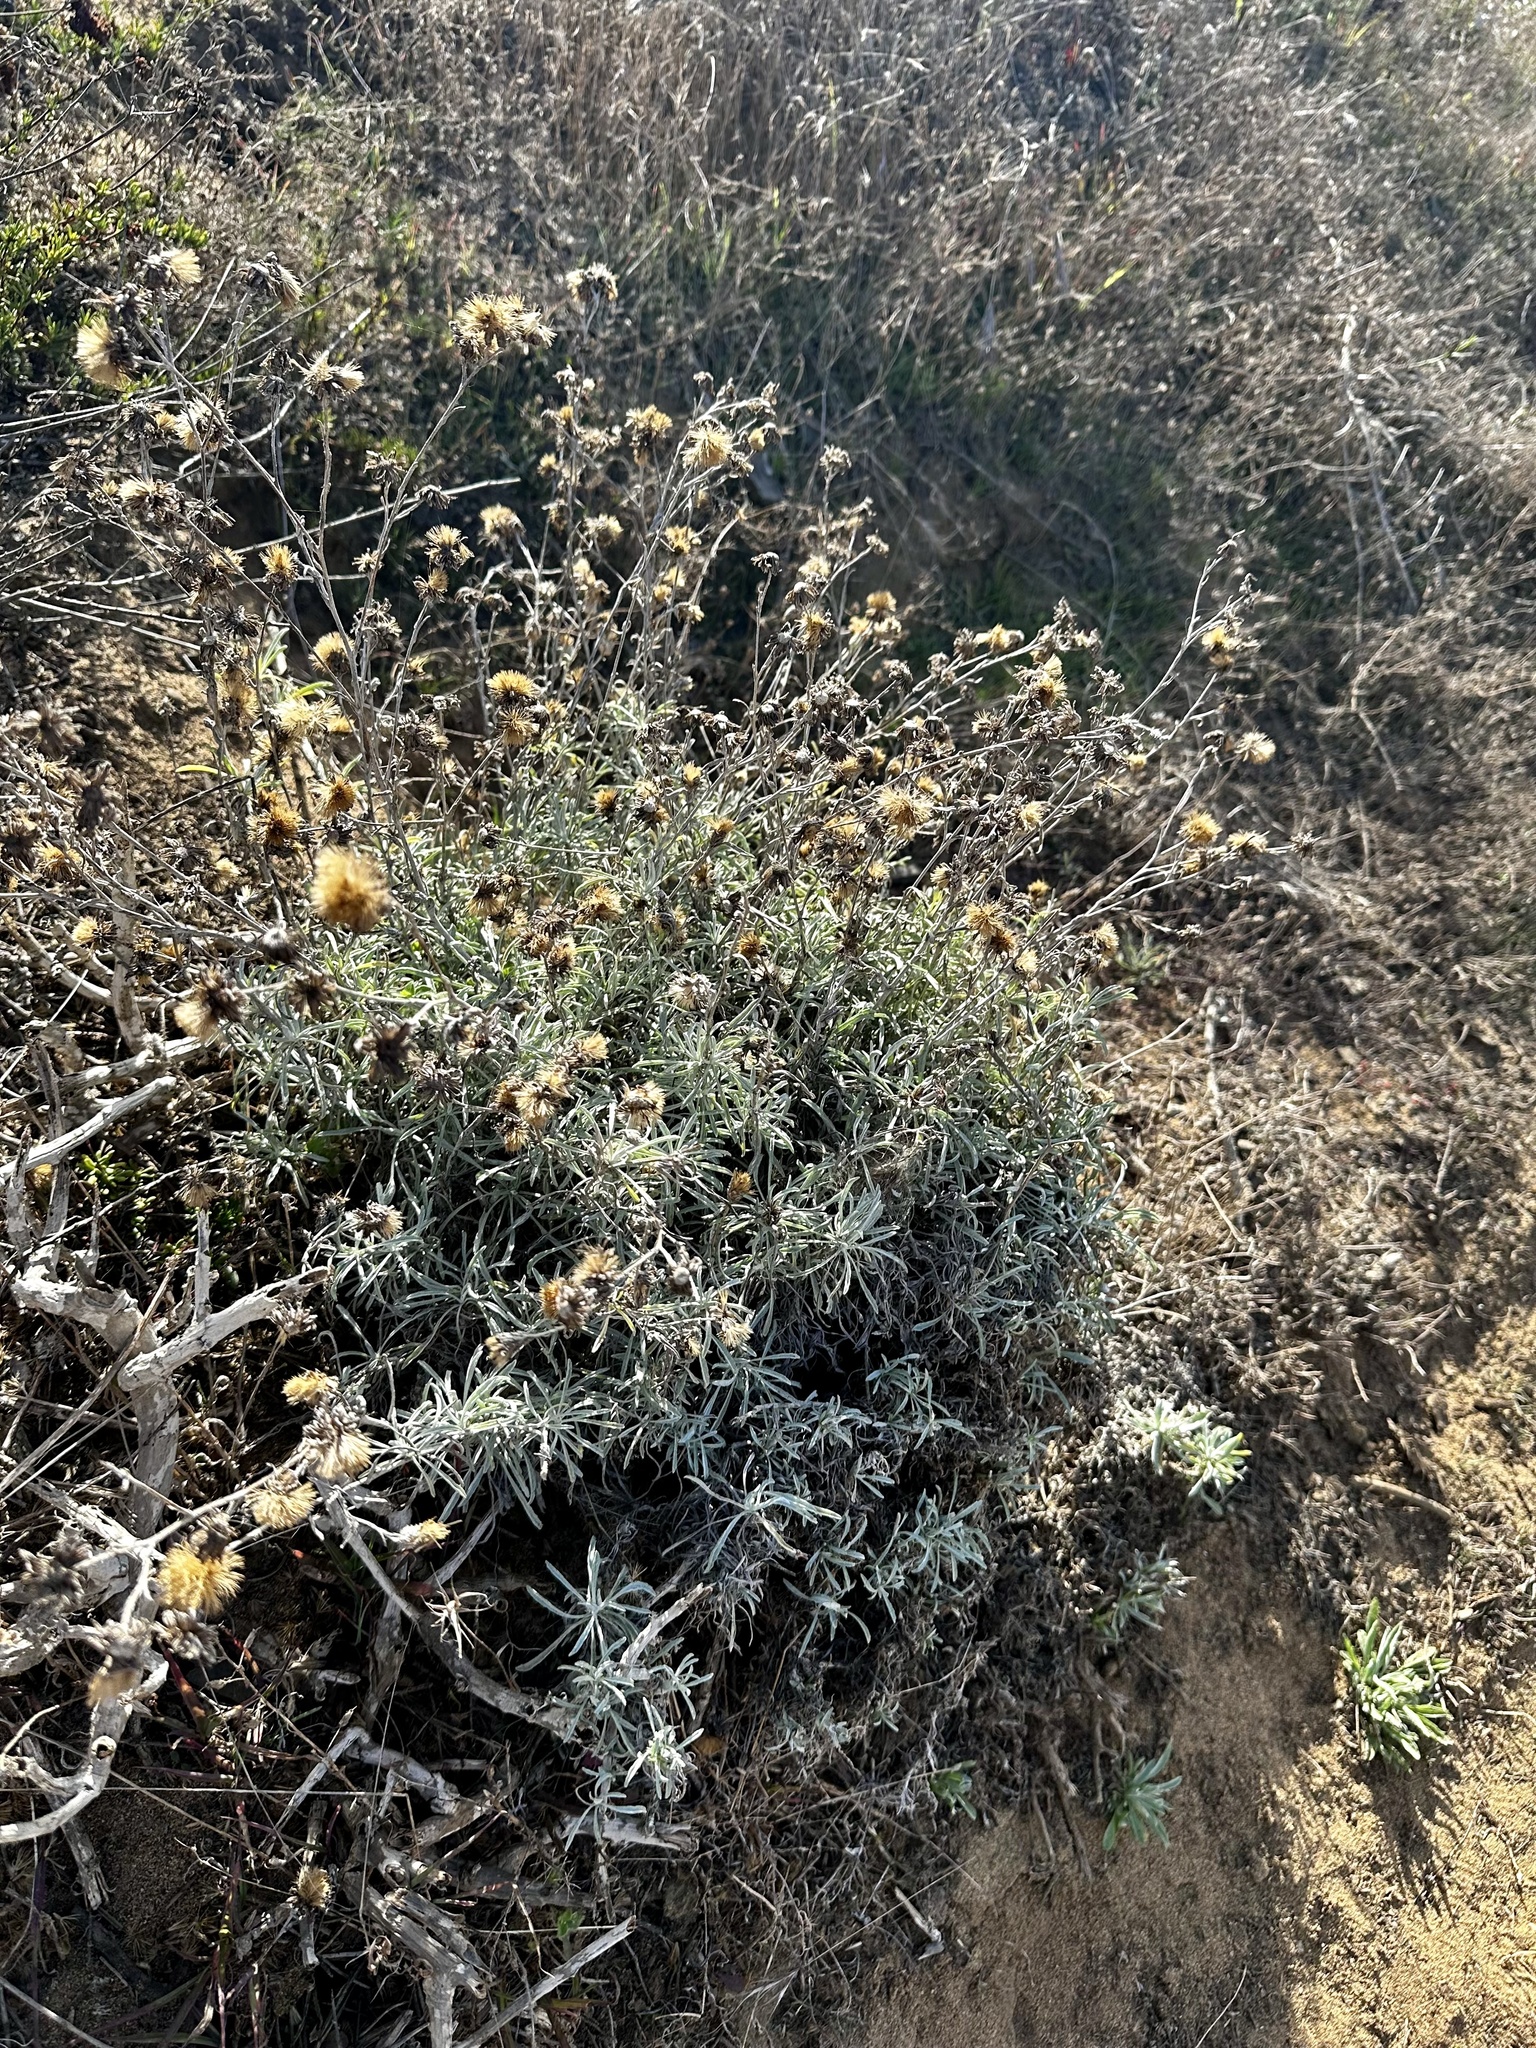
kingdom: Plantae
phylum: Tracheophyta
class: Magnoliopsida
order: Asterales
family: Asteraceae
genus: Corethrogyne
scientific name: Corethrogyne filaginifolia
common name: Sand-aster
